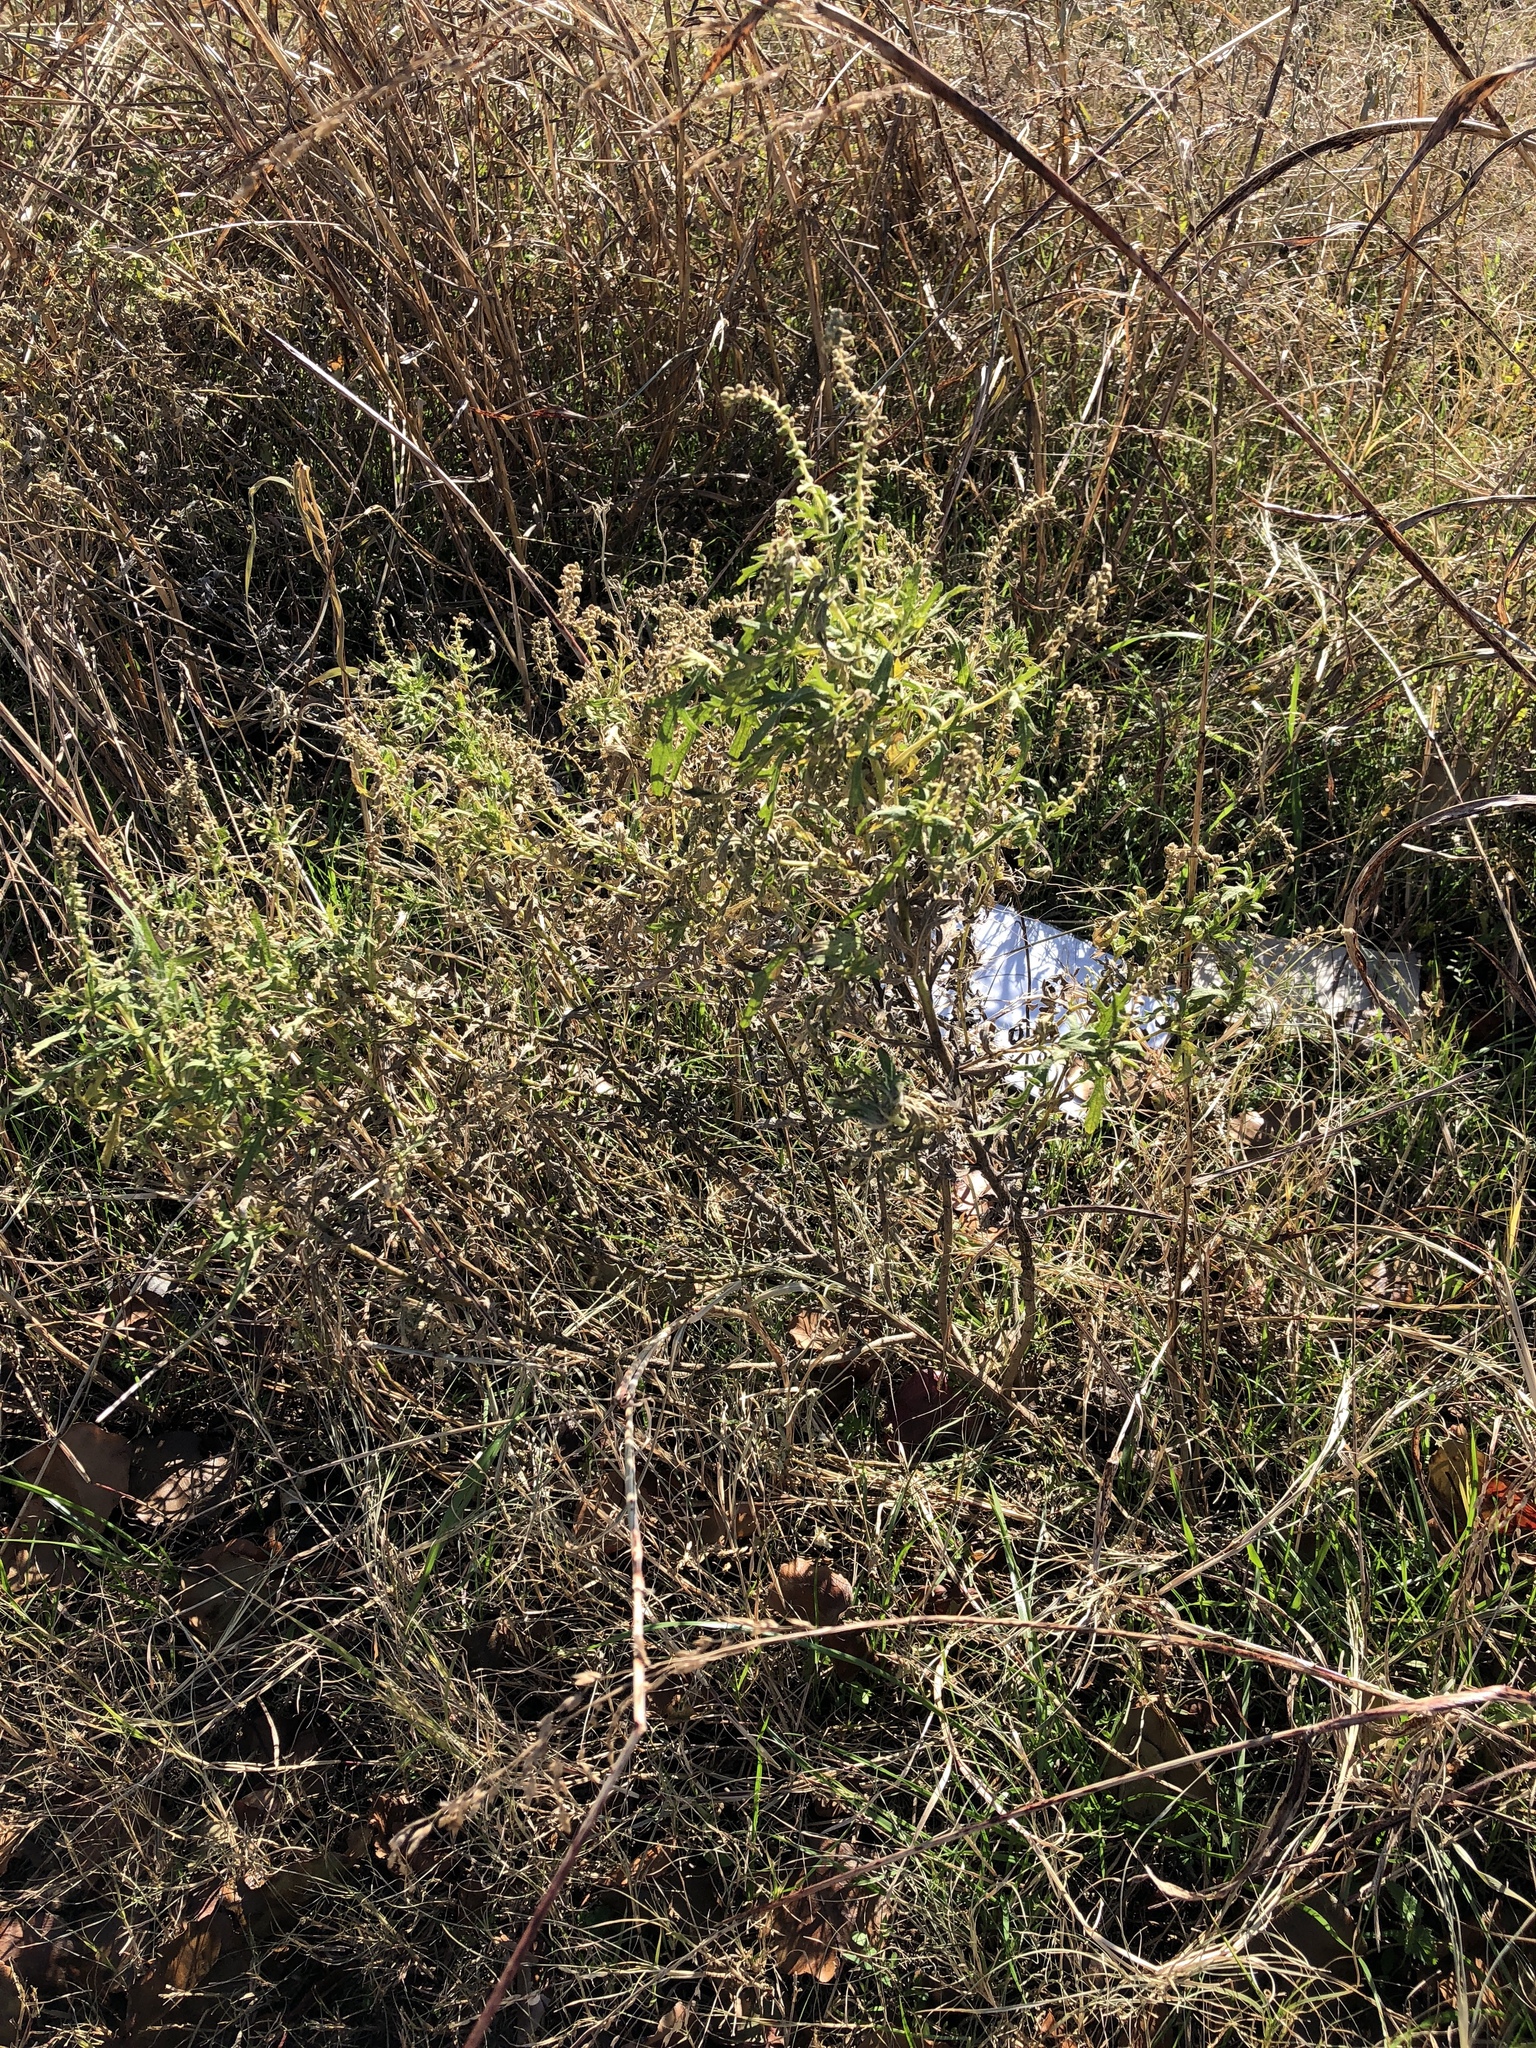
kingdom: Plantae
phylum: Tracheophyta
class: Magnoliopsida
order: Asterales
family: Asteraceae
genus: Ambrosia
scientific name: Ambrosia psilostachya
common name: Perennial ragweed
